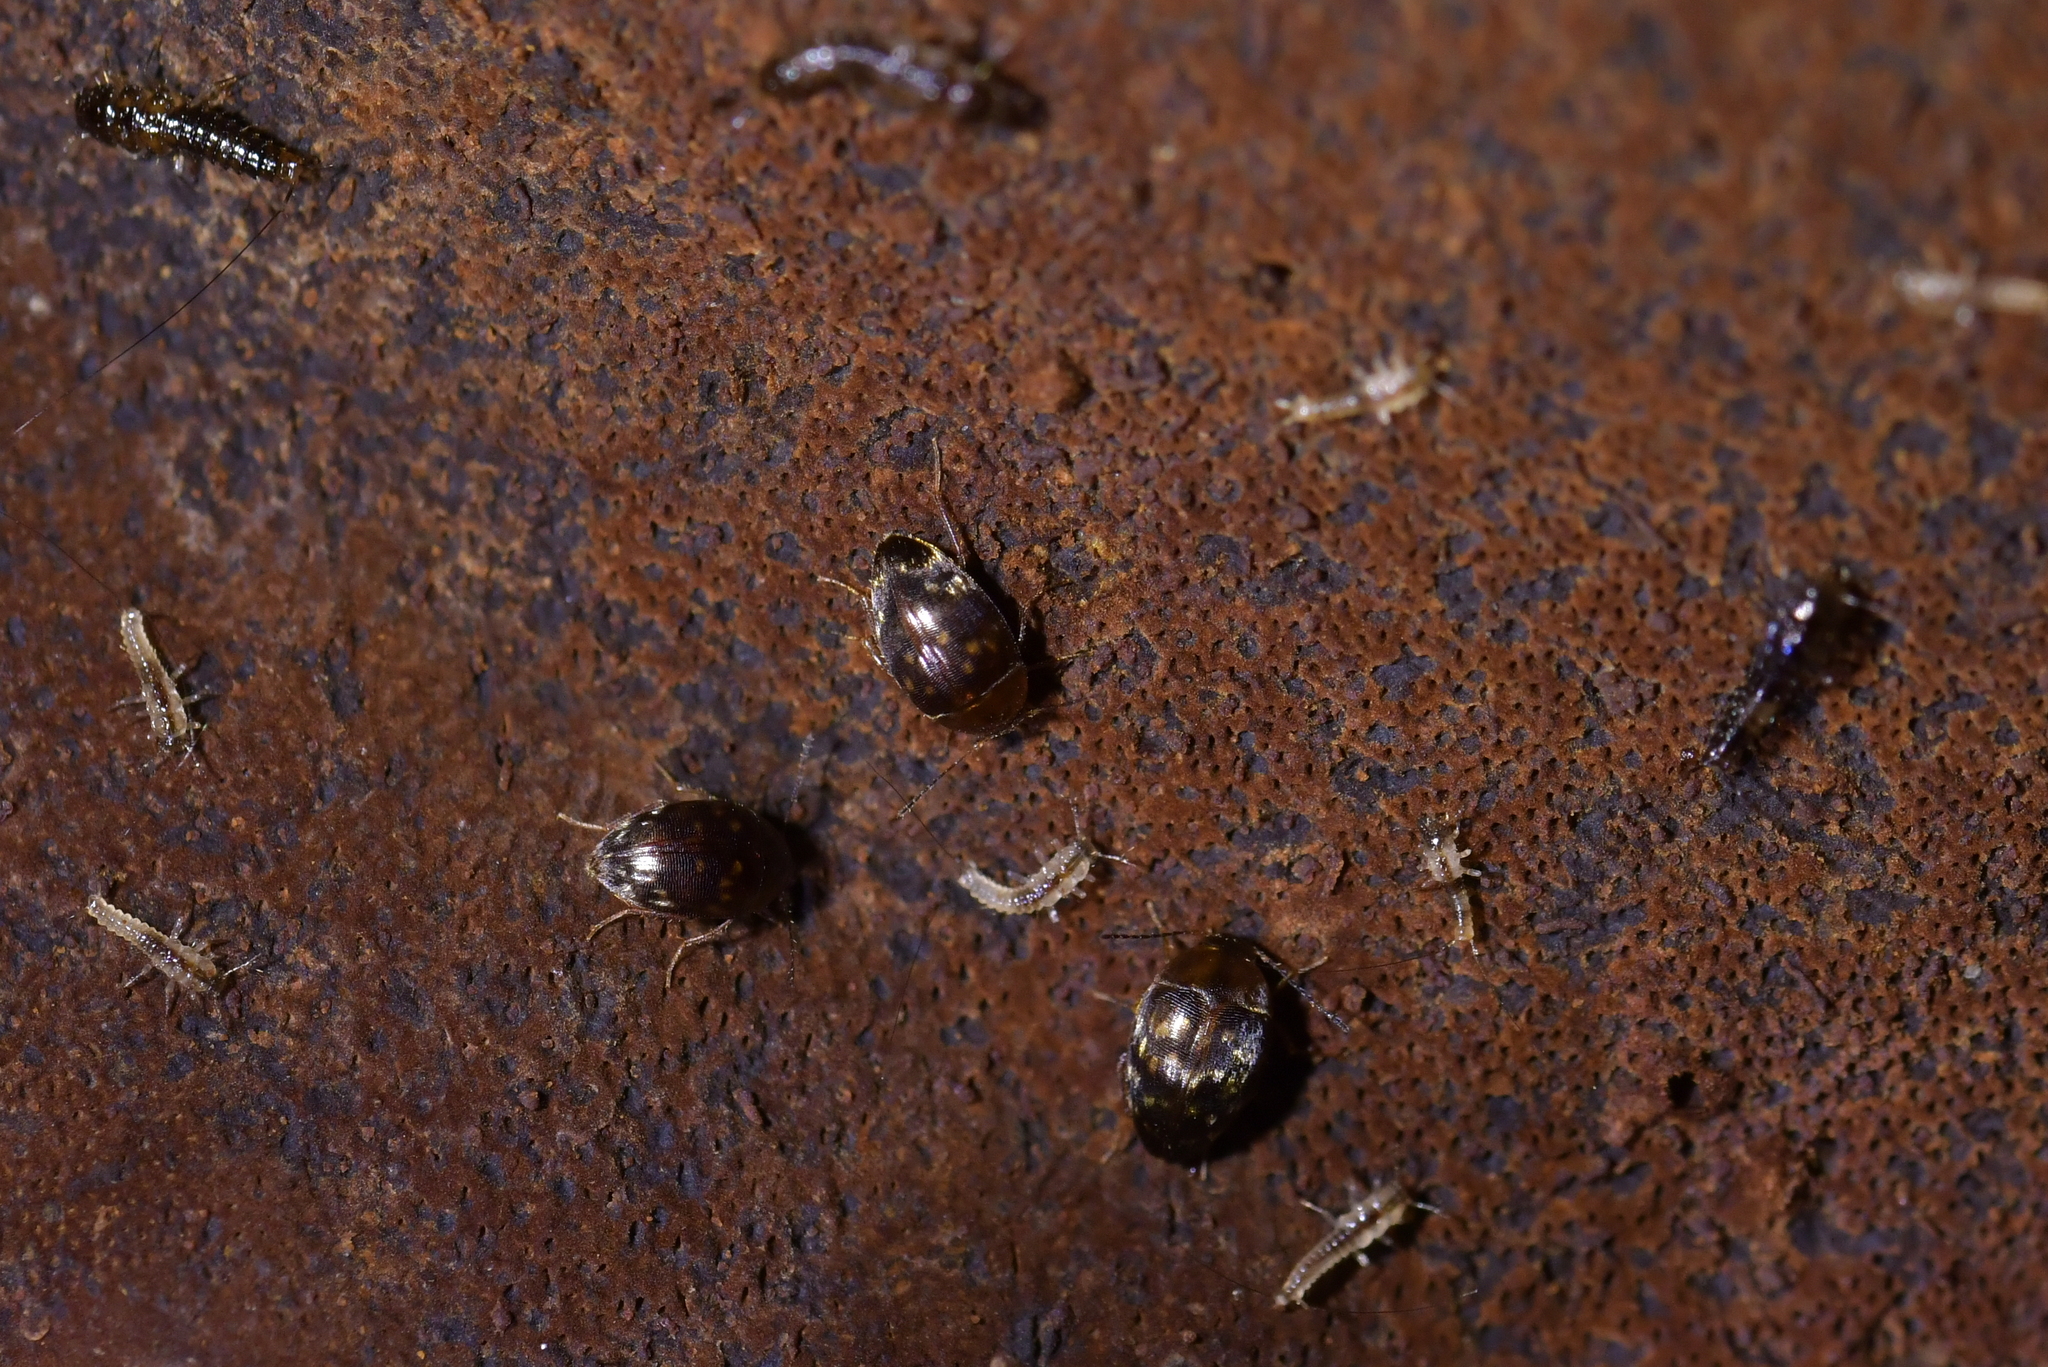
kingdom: Animalia
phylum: Arthropoda
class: Insecta
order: Coleoptera
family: Leiodidae
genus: Zearagytodes
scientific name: Zearagytodes maculifer
